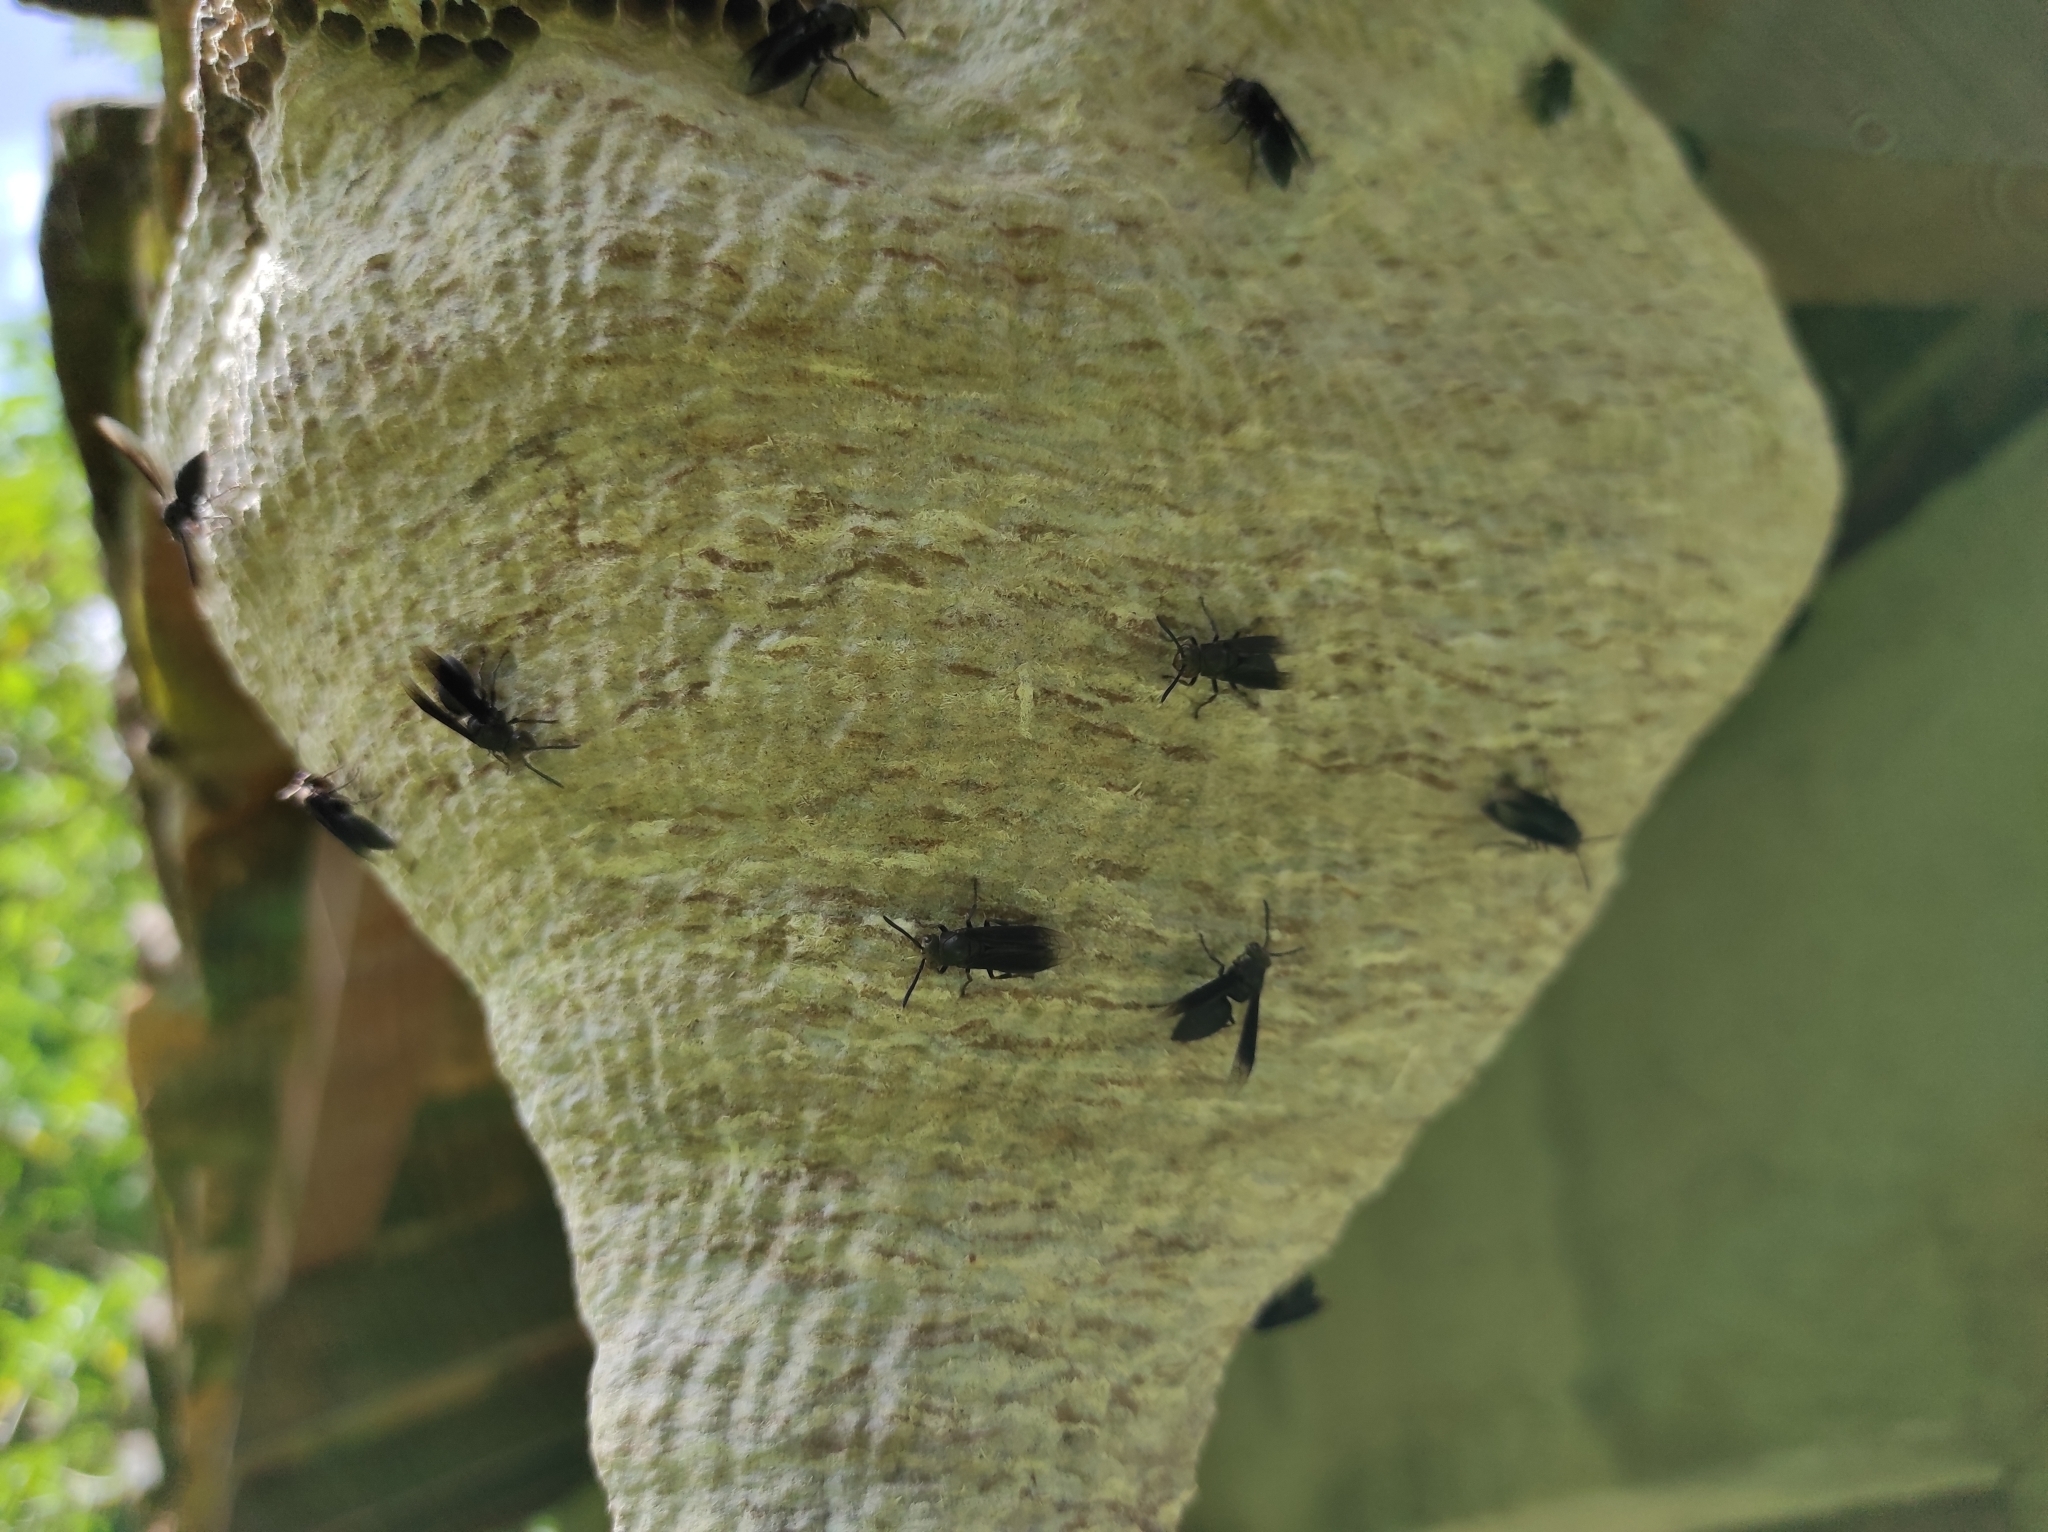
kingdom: Animalia
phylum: Arthropoda
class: Insecta
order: Hymenoptera
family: Vespidae
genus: Parachartergus
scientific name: Parachartergus apicalis
